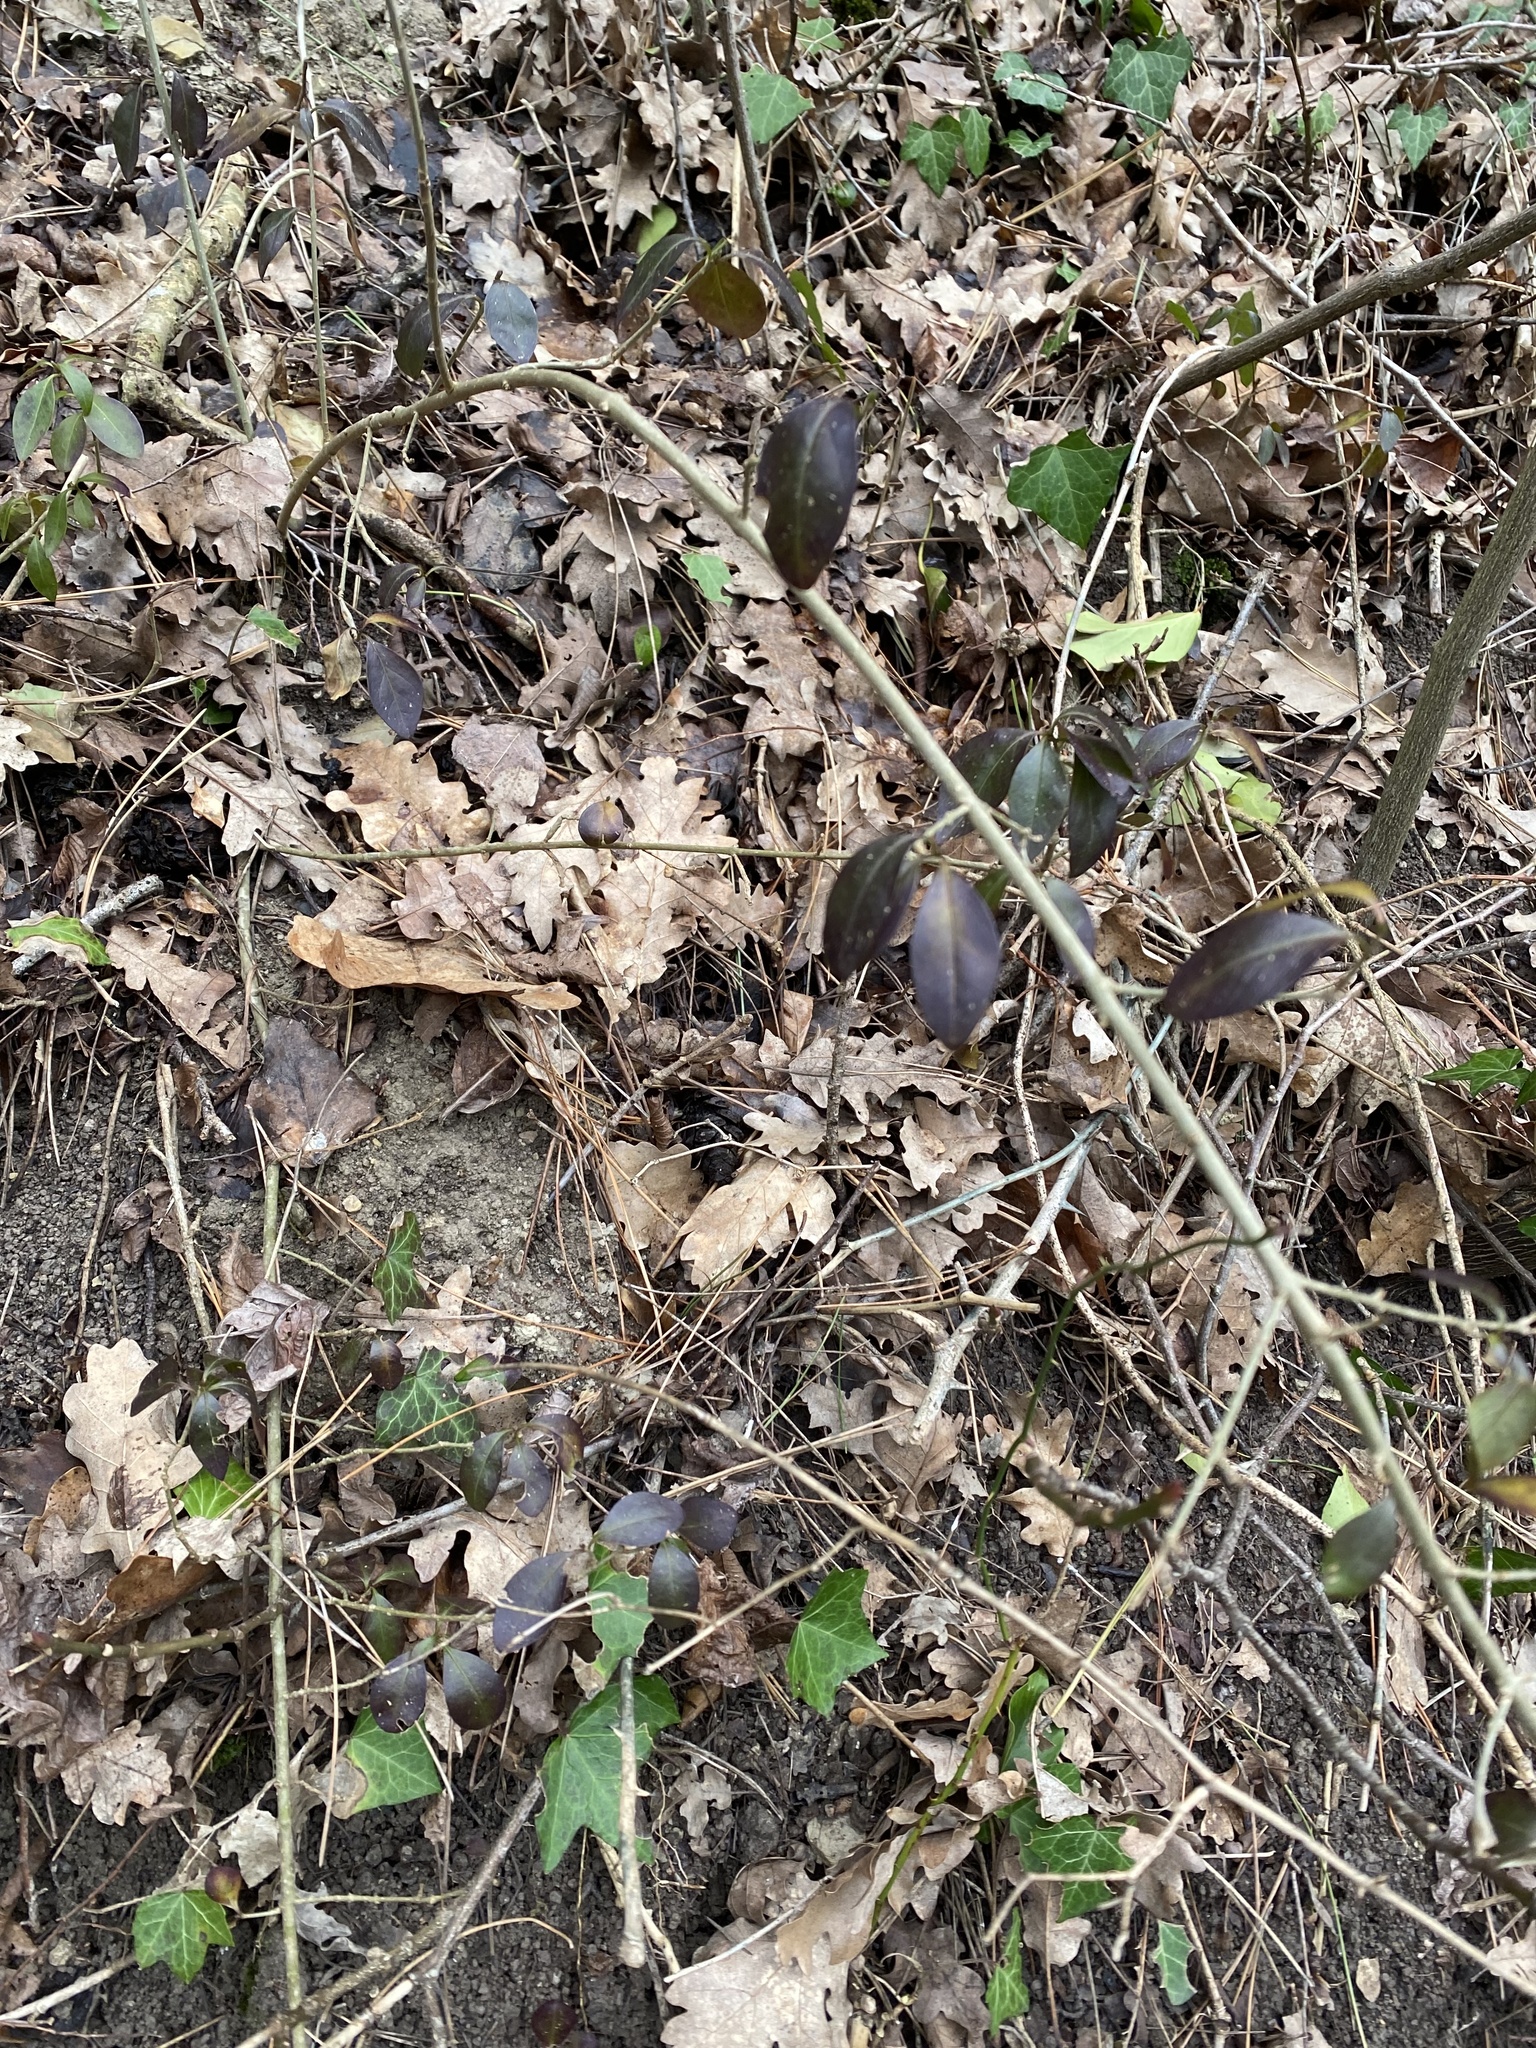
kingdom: Plantae
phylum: Tracheophyta
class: Magnoliopsida
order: Lamiales
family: Oleaceae
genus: Ligustrum
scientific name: Ligustrum vulgare
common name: Wild privet
